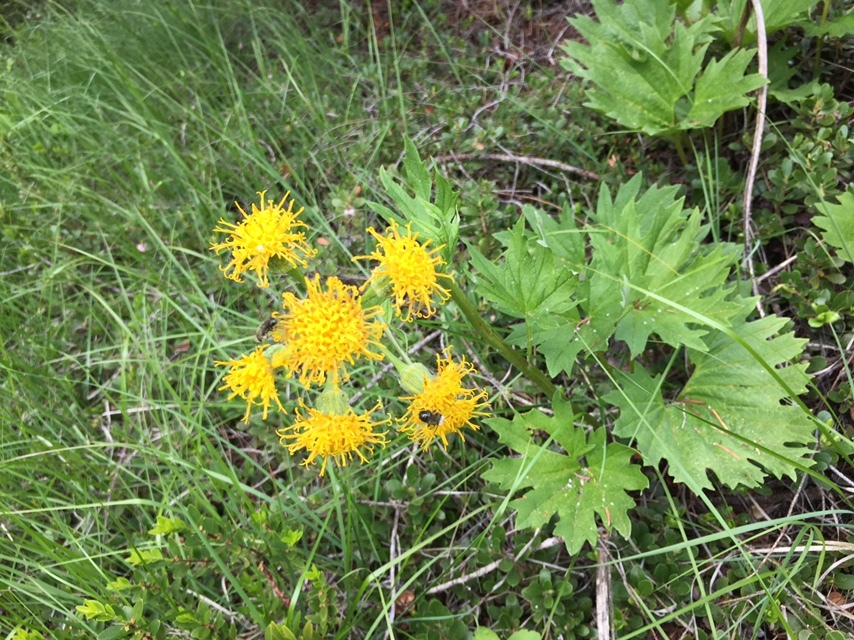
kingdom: Plantae
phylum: Tracheophyta
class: Magnoliopsida
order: Asterales
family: Asteraceae
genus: Cacaliopsis
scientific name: Cacaliopsis nardosmia
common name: Silvercrown
